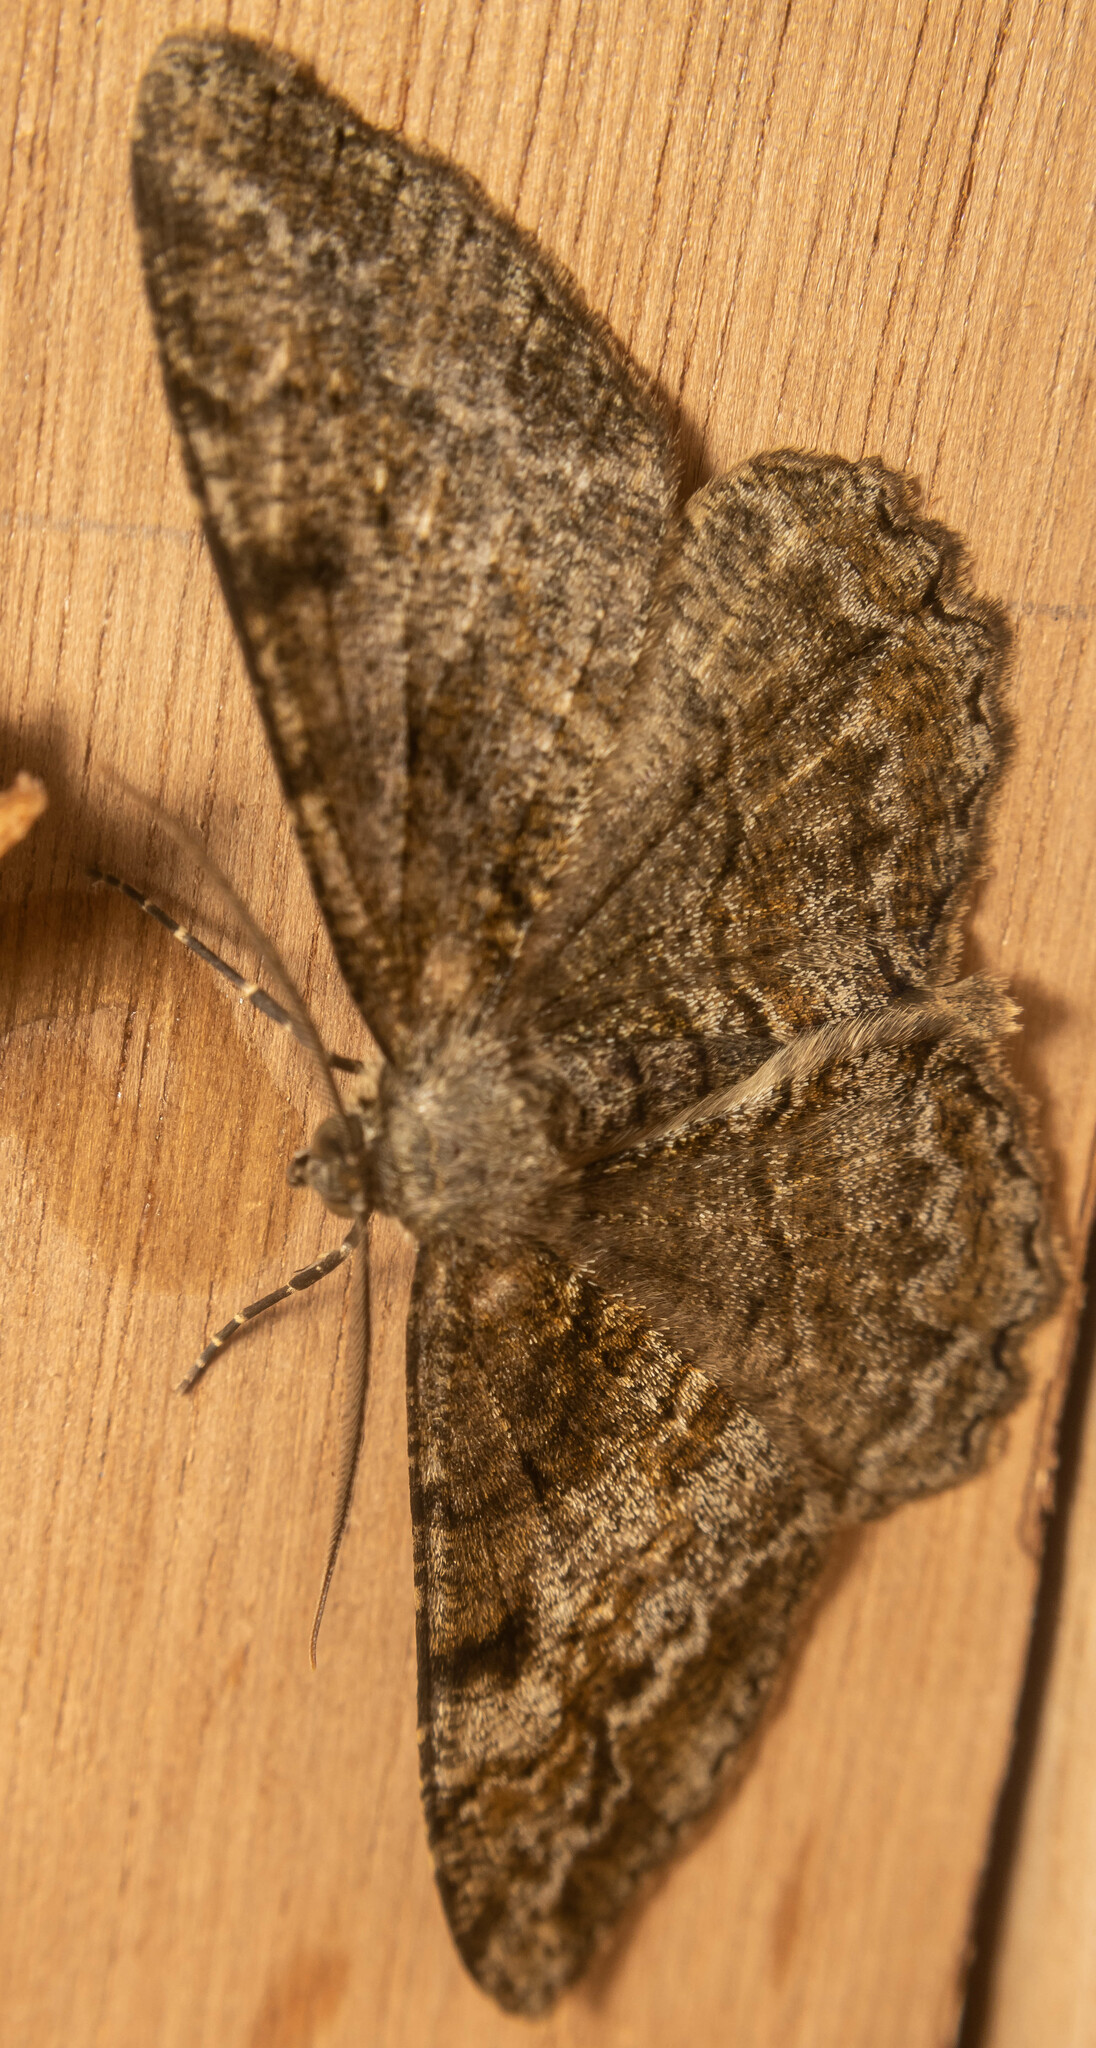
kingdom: Animalia
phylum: Arthropoda
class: Insecta
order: Lepidoptera
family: Geometridae
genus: Alcis
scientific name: Alcis repandata
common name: Mottled beauty
